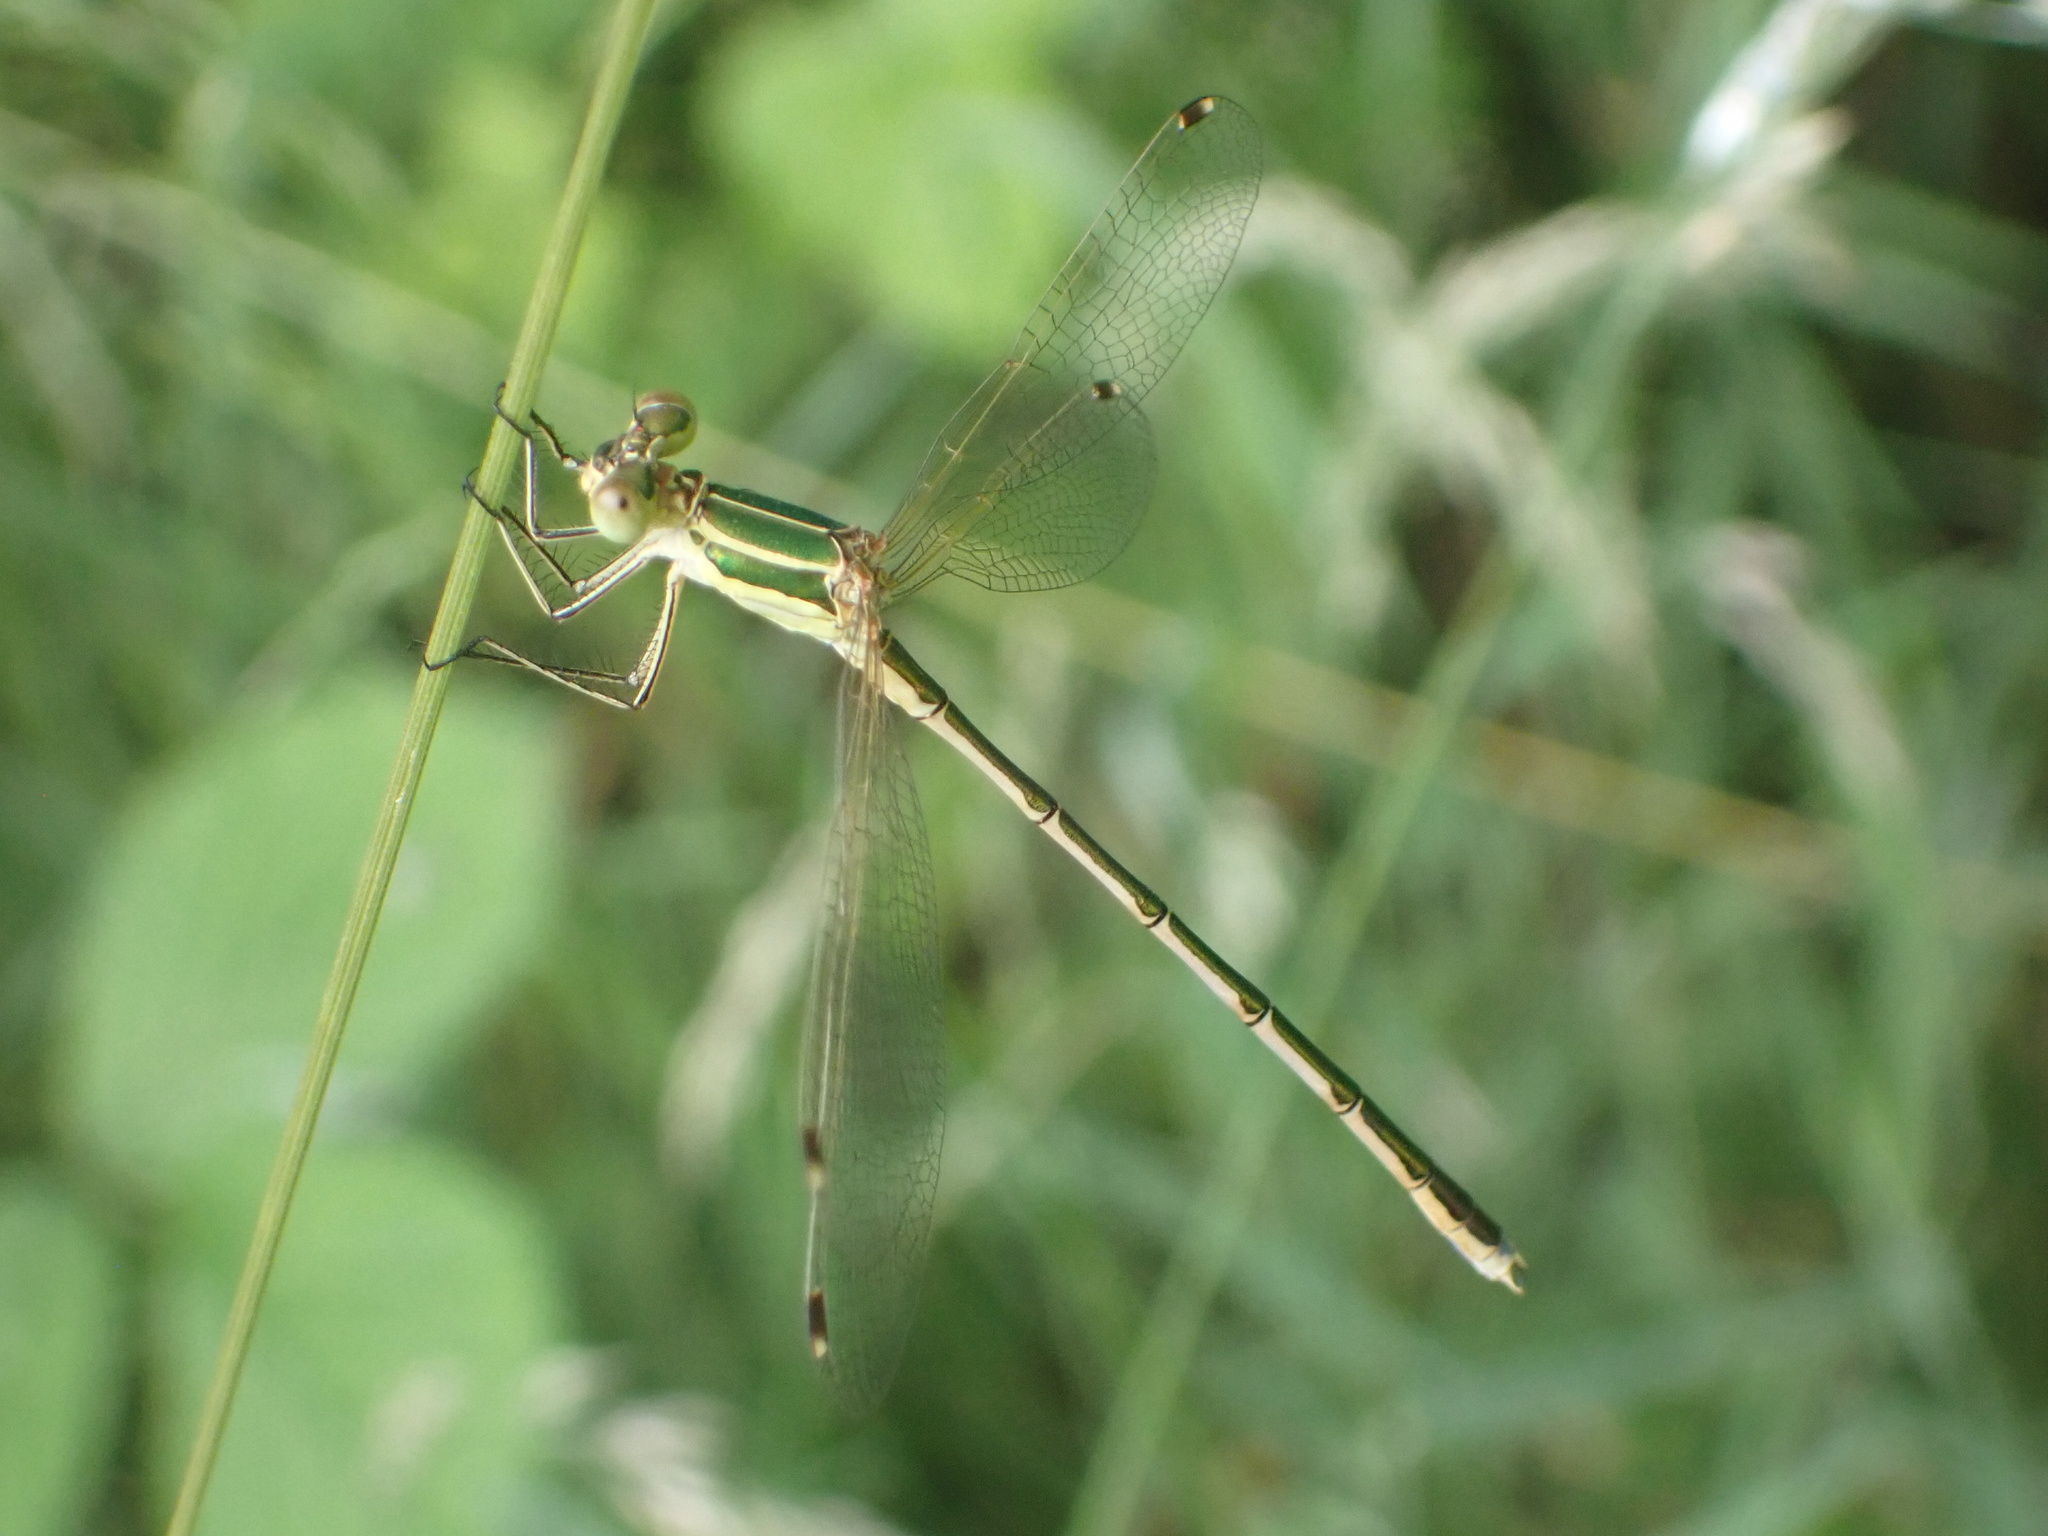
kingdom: Animalia
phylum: Arthropoda
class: Insecta
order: Odonata
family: Lestidae
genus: Lestes
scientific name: Lestes barbarus
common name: Migrant spreadwing
